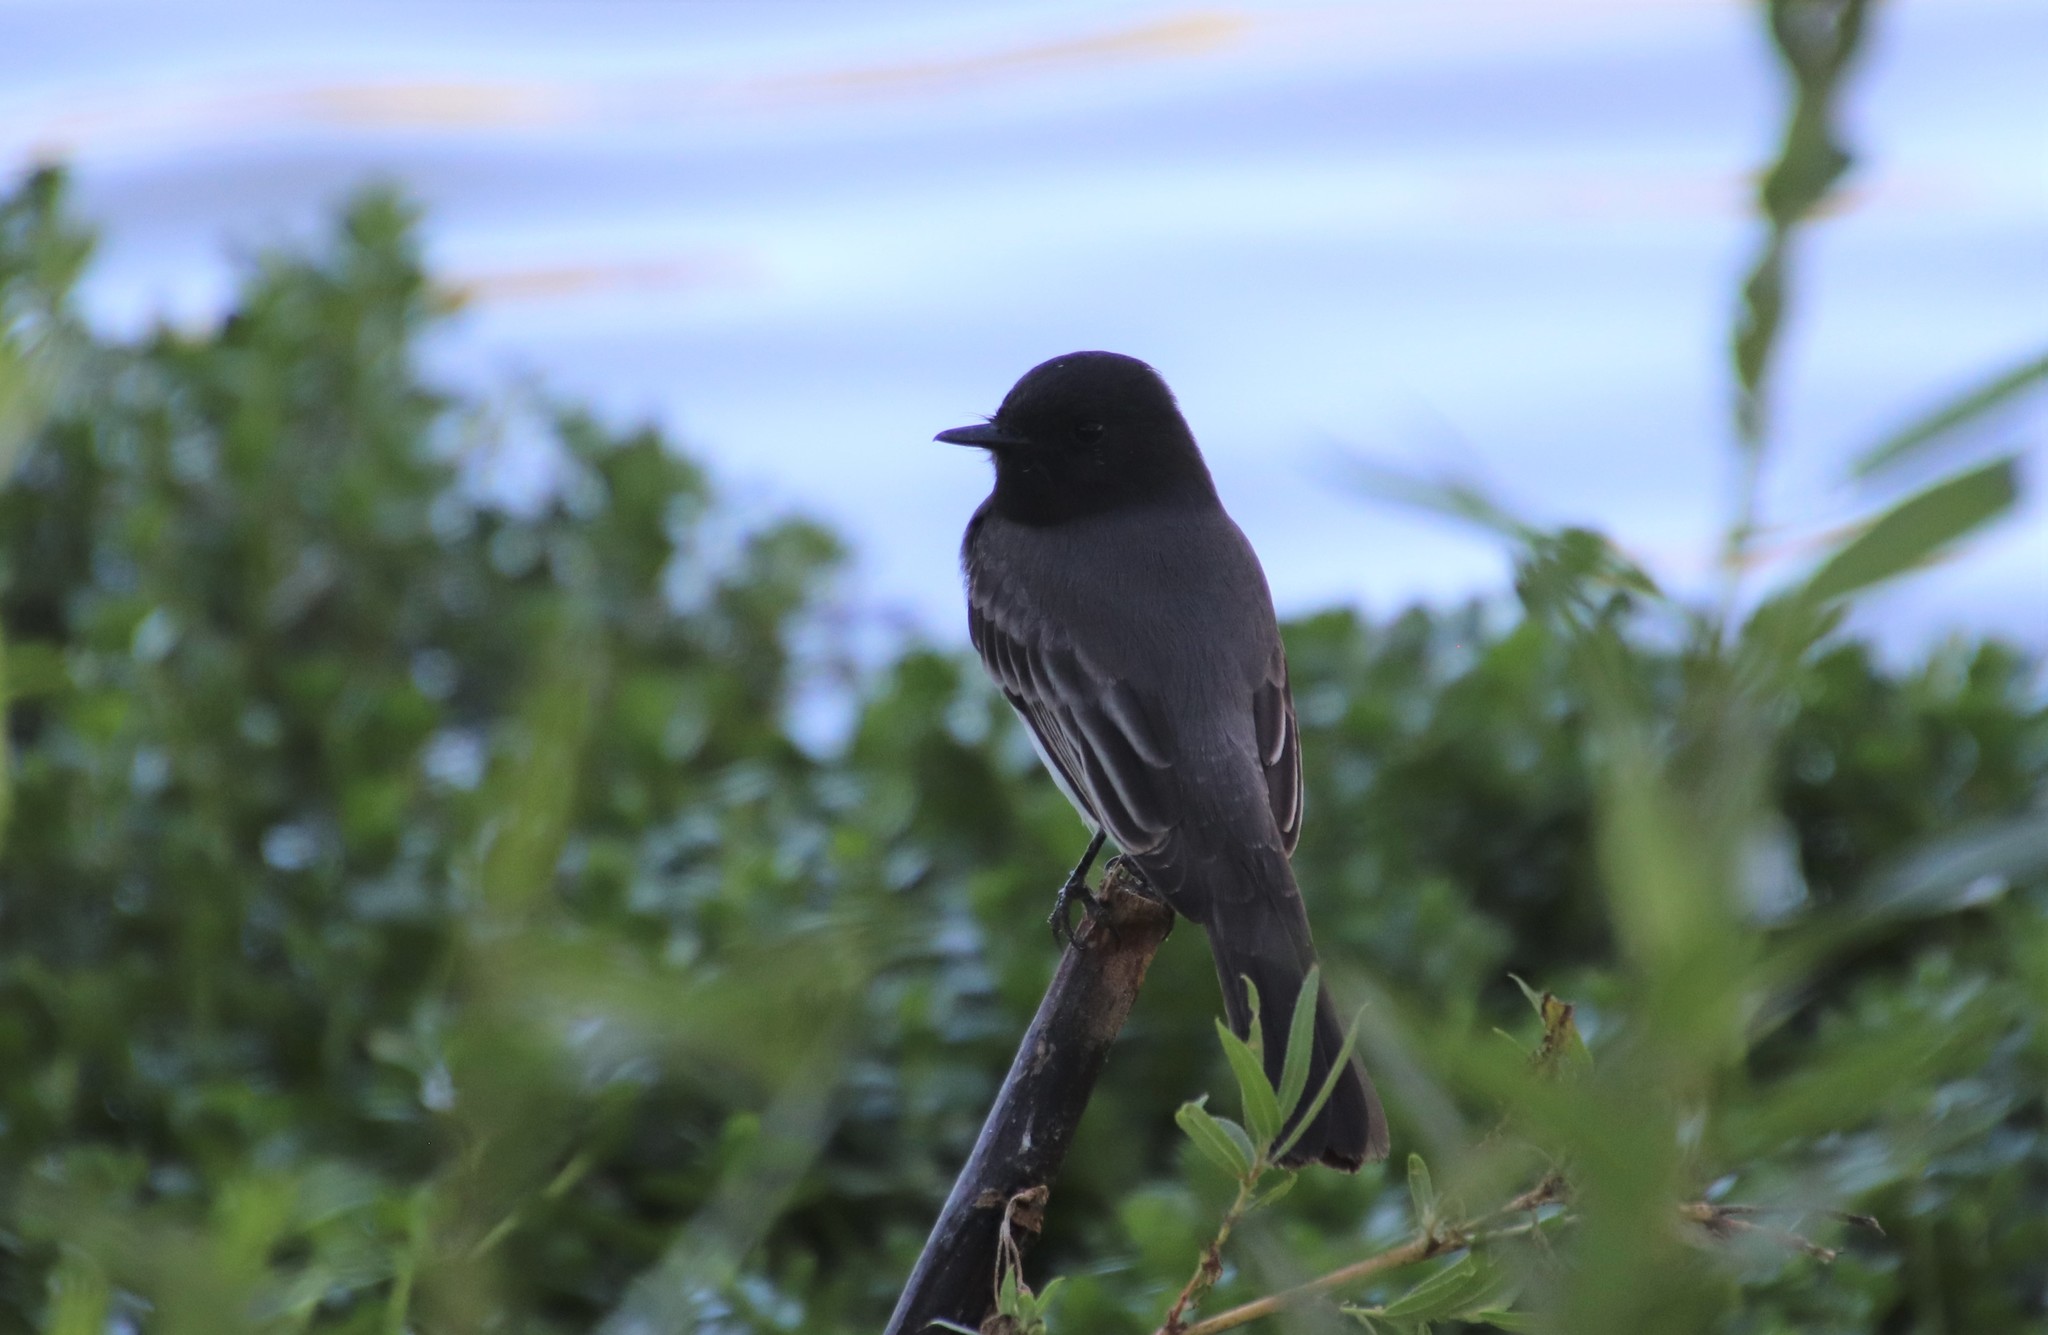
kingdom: Animalia
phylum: Chordata
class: Aves
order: Passeriformes
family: Tyrannidae
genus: Sayornis
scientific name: Sayornis nigricans
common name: Black phoebe
